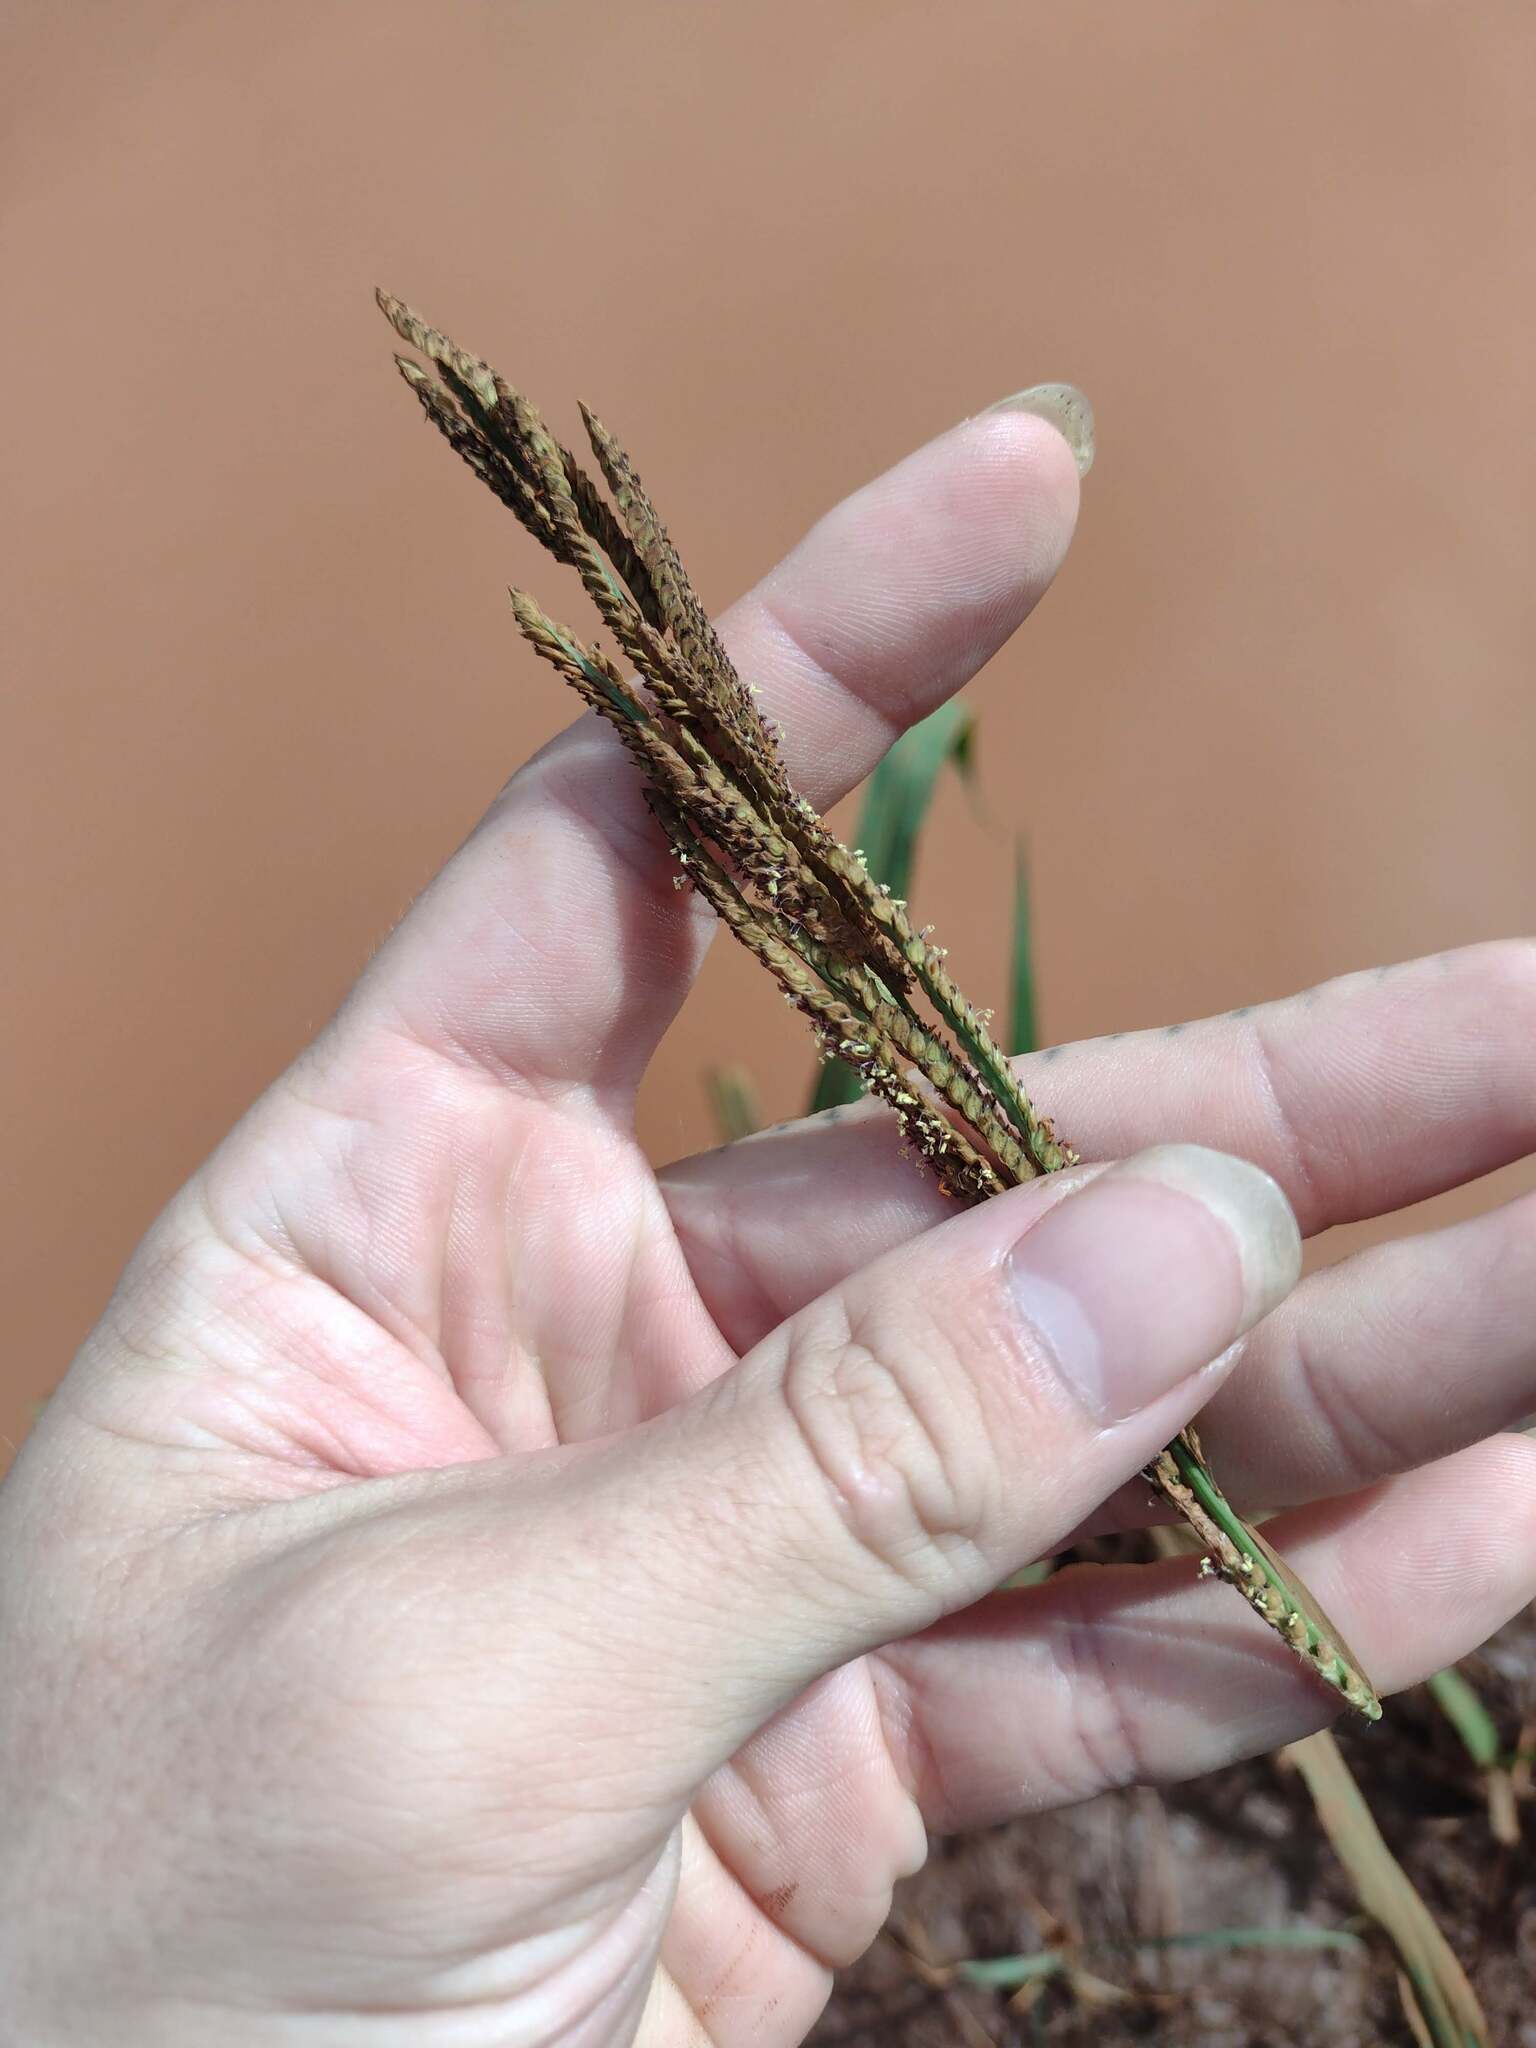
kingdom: Plantae
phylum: Tracheophyta
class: Liliopsida
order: Poales
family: Poaceae
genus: Paspalum
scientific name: Paspalum urvillei
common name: Vasey's grass
